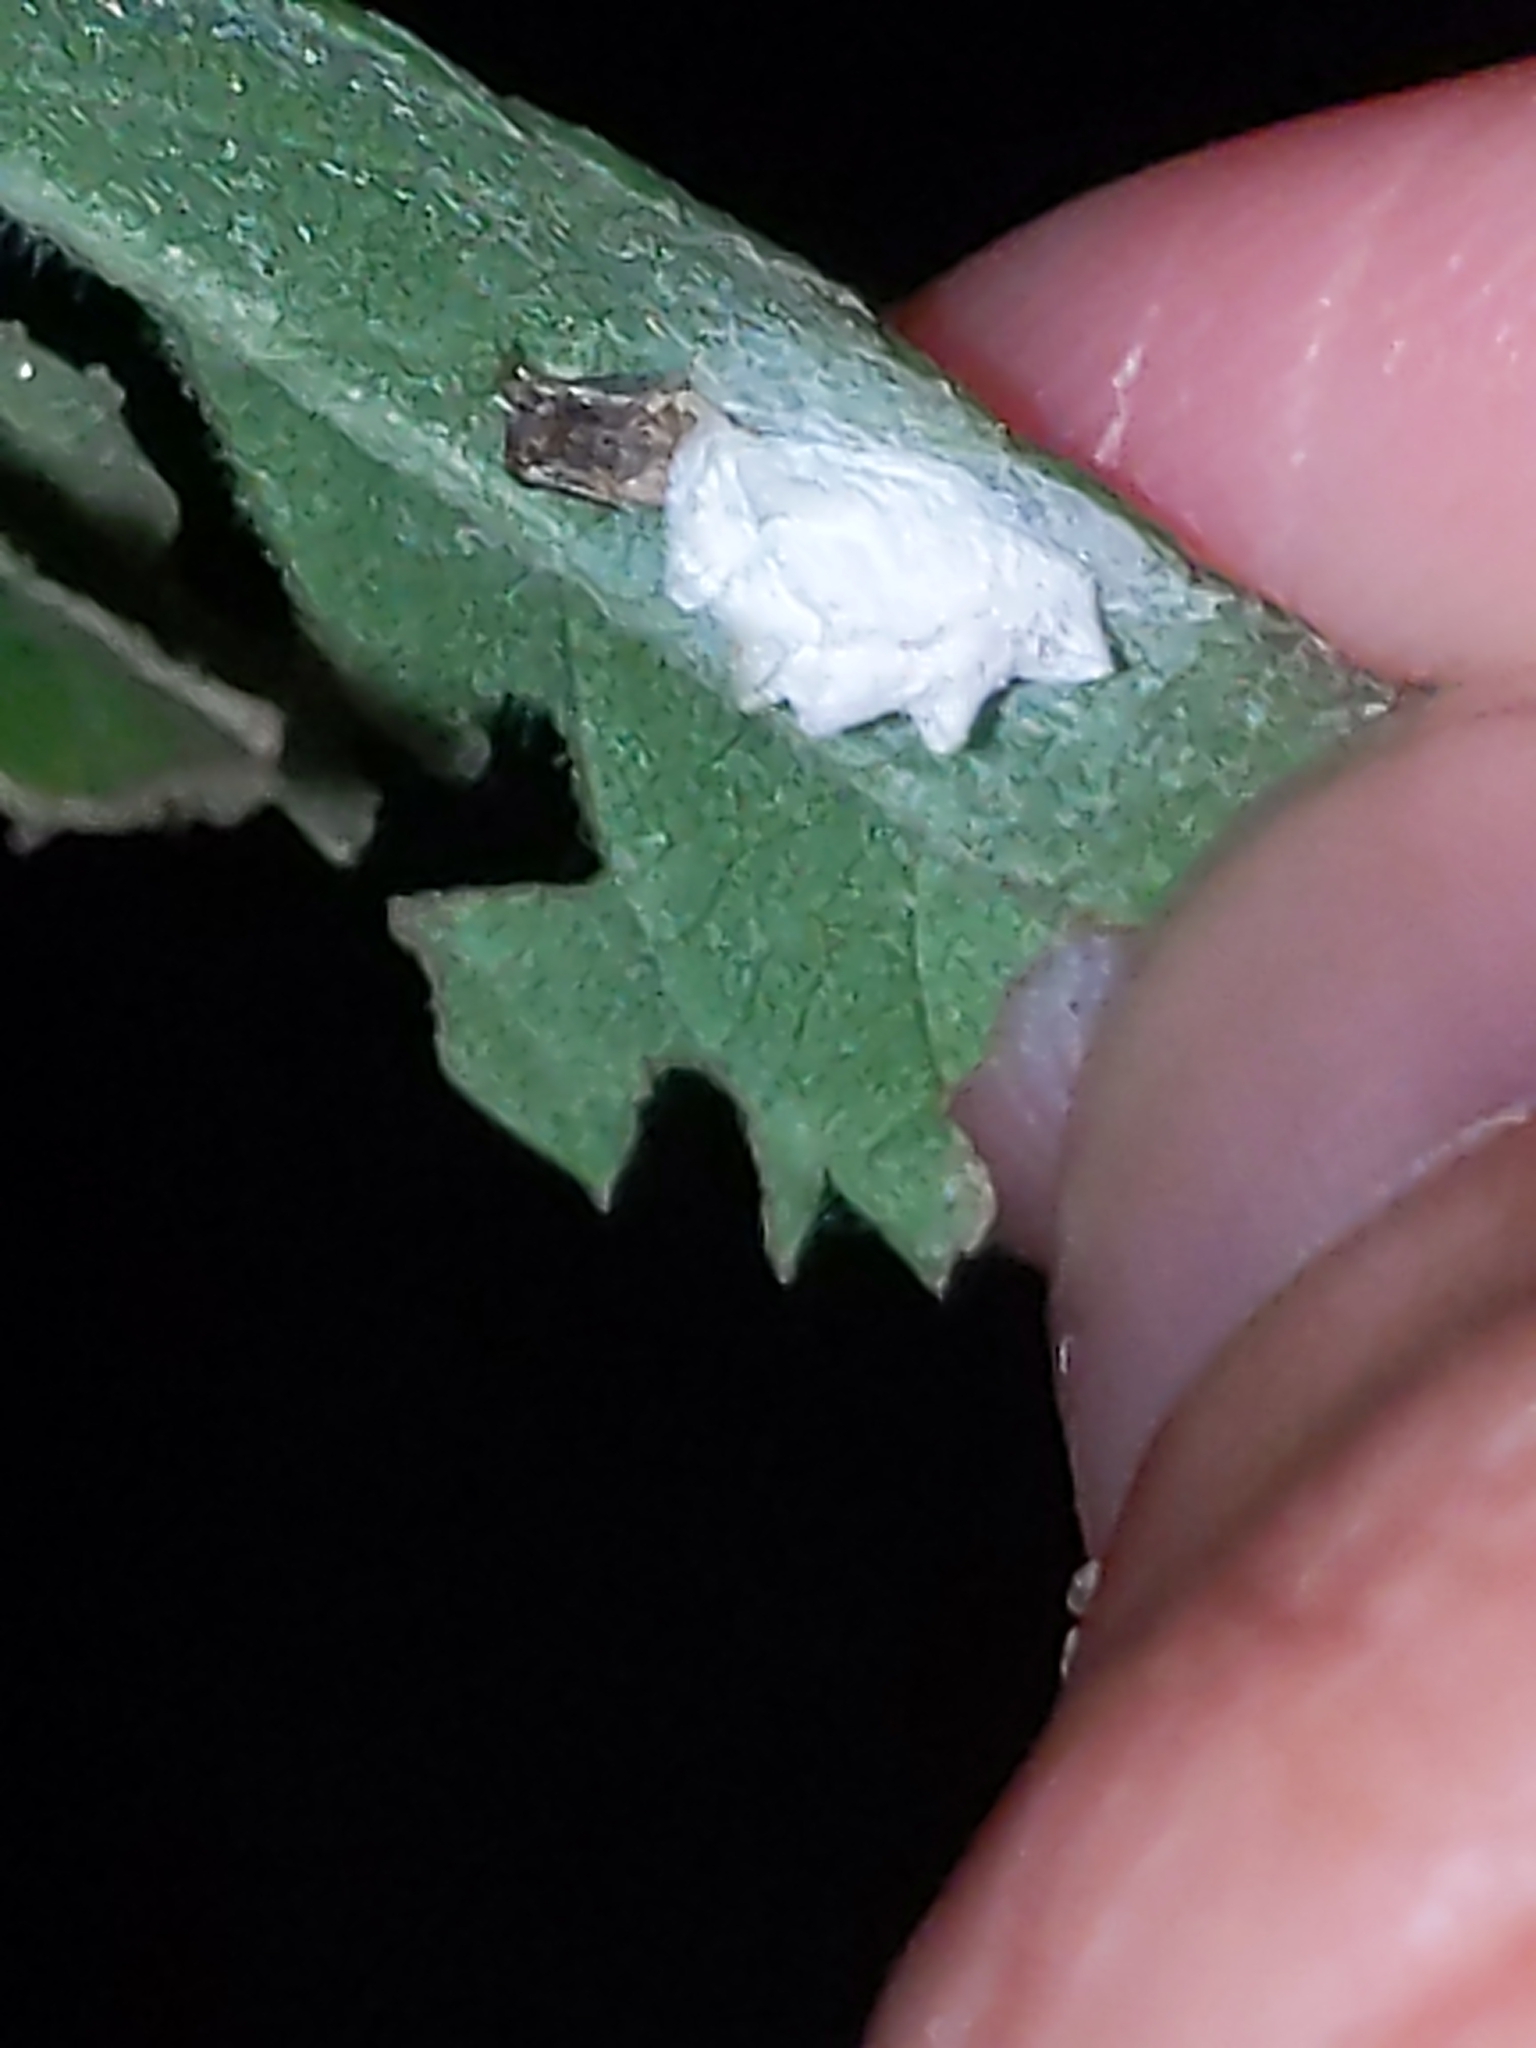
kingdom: Animalia
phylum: Arthropoda
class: Insecta
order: Lepidoptera
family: Epipyropidae
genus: Fulgoraecia
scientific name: Fulgoraecia exigua
